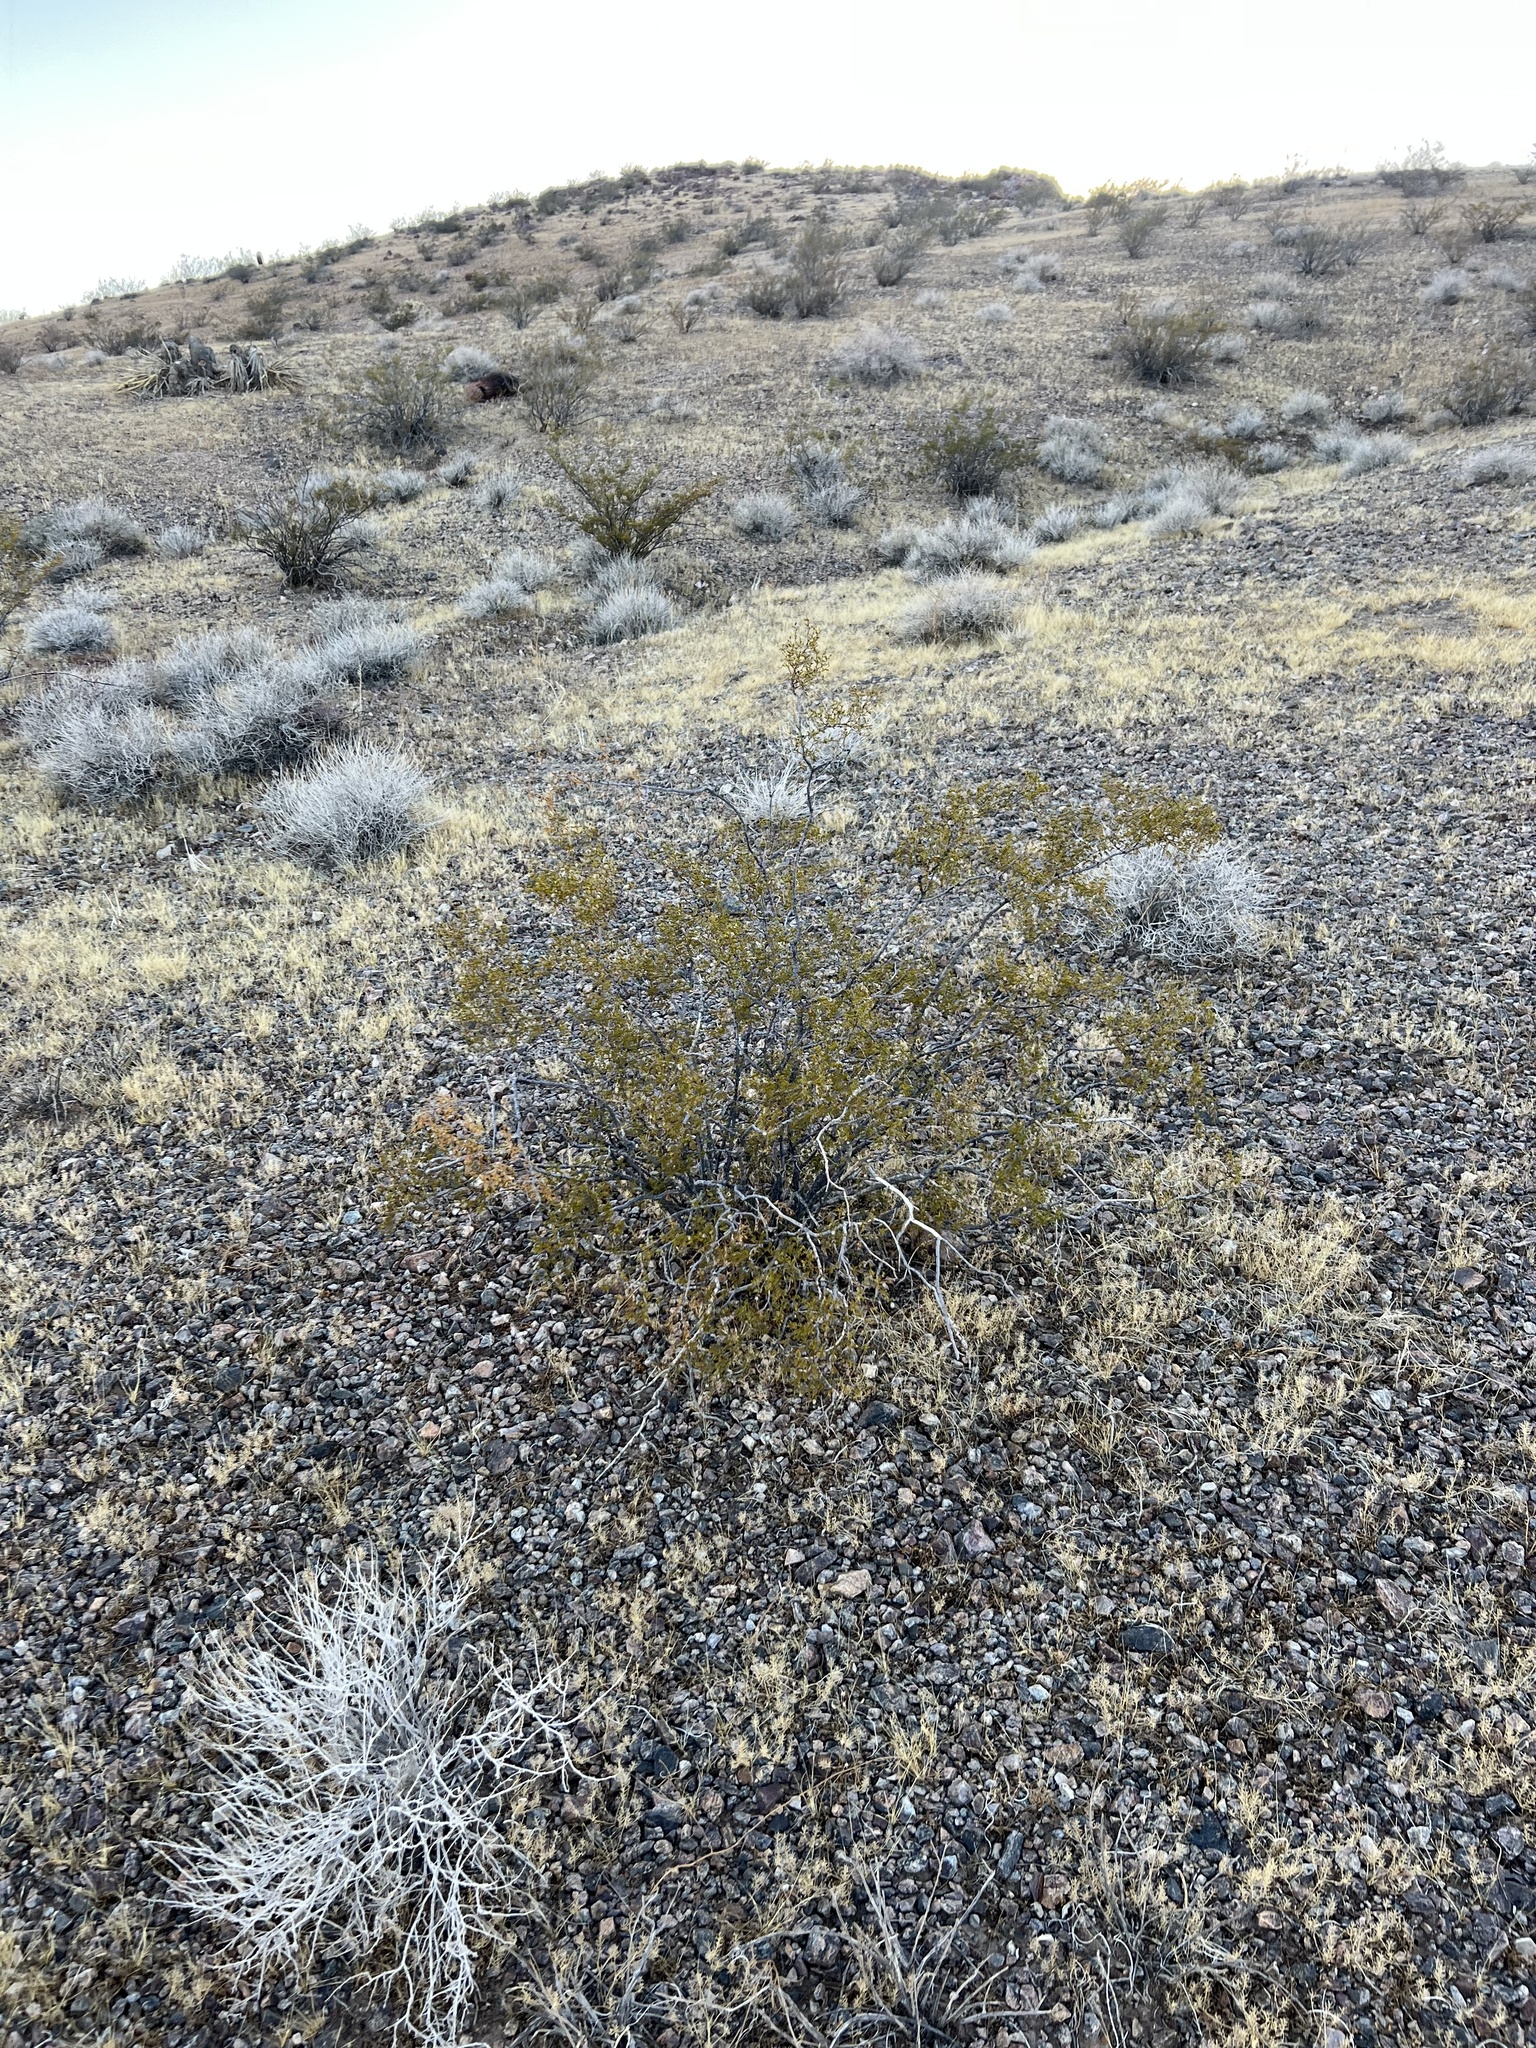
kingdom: Plantae
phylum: Tracheophyta
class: Magnoliopsida
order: Zygophyllales
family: Zygophyllaceae
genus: Larrea
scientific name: Larrea tridentata
